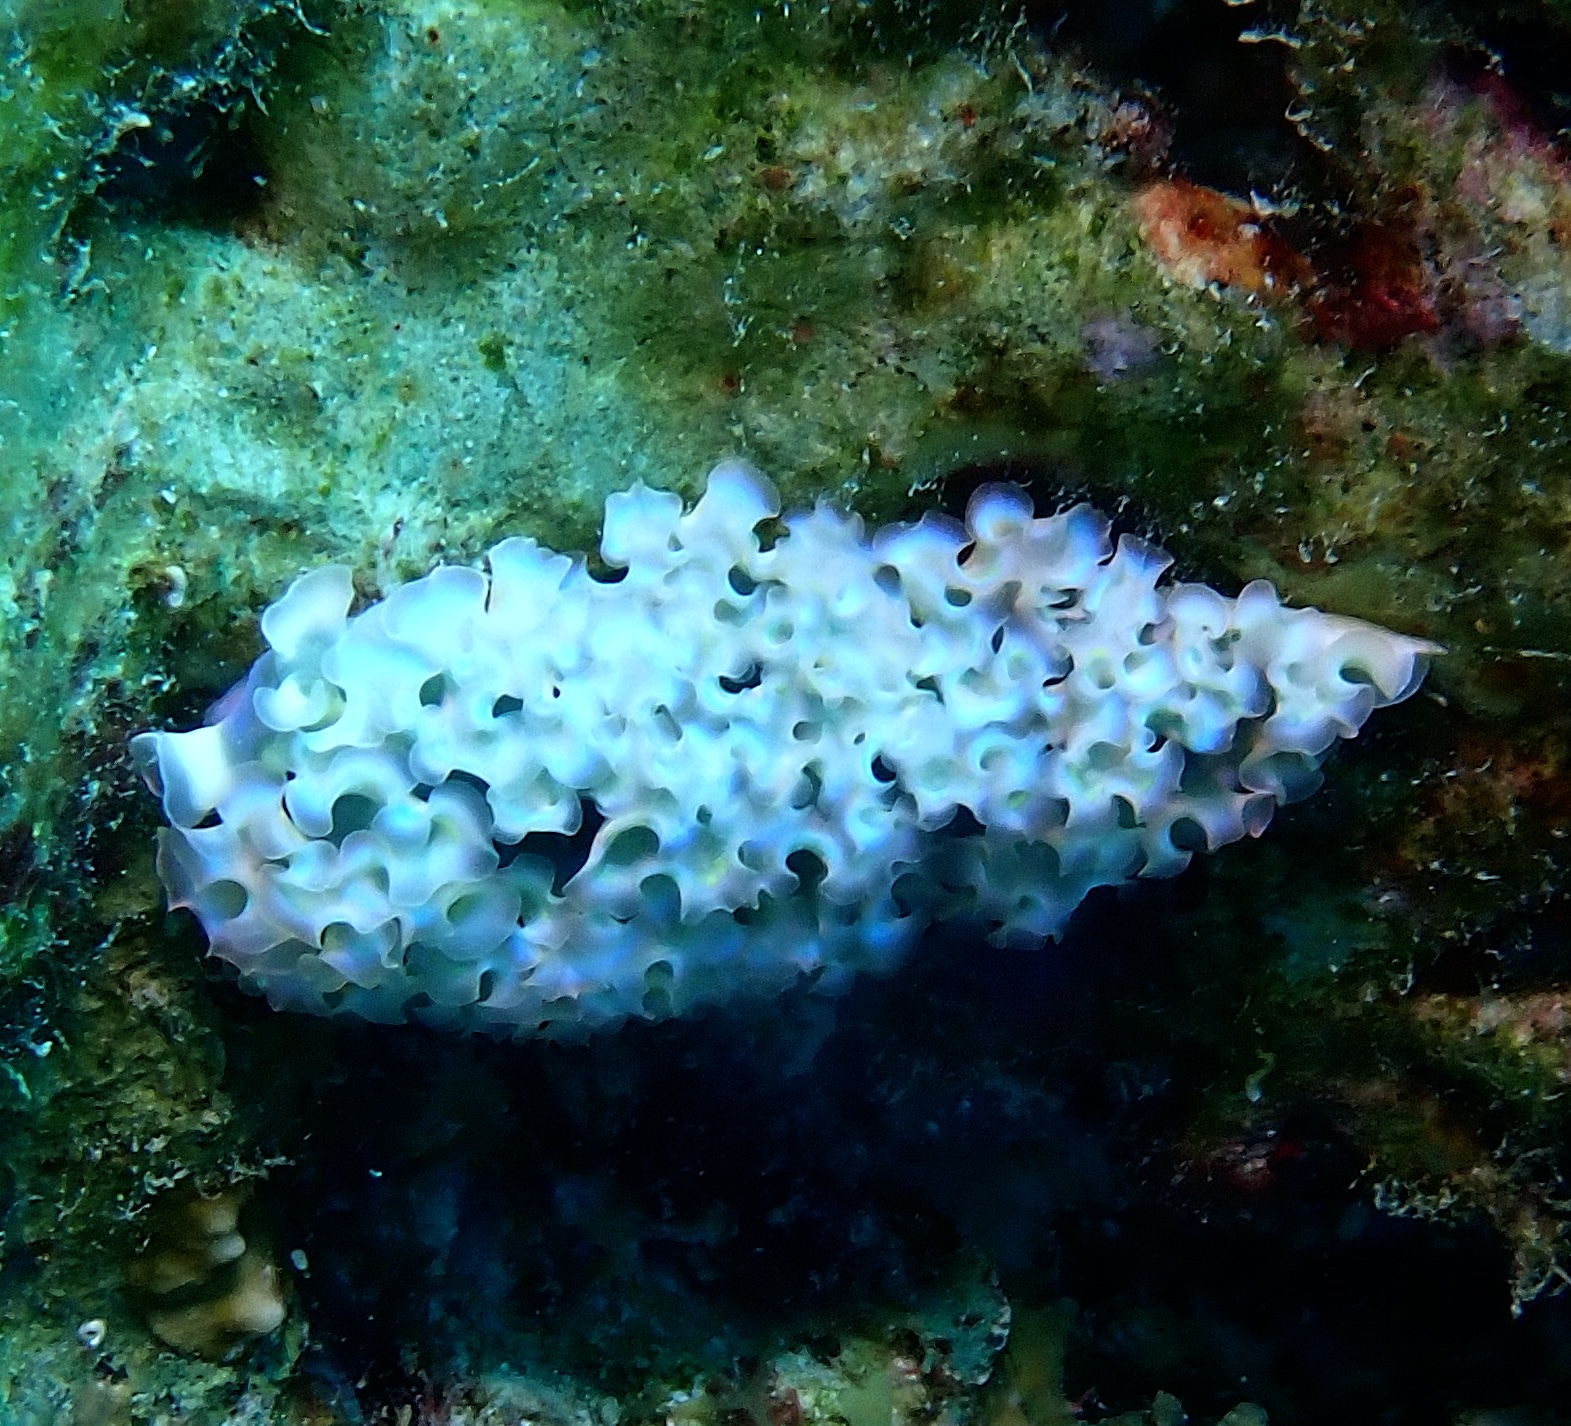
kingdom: Animalia
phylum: Mollusca
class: Gastropoda
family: Plakobranchidae
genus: Elysia
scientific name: Elysia crispata
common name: Lettuce slug
